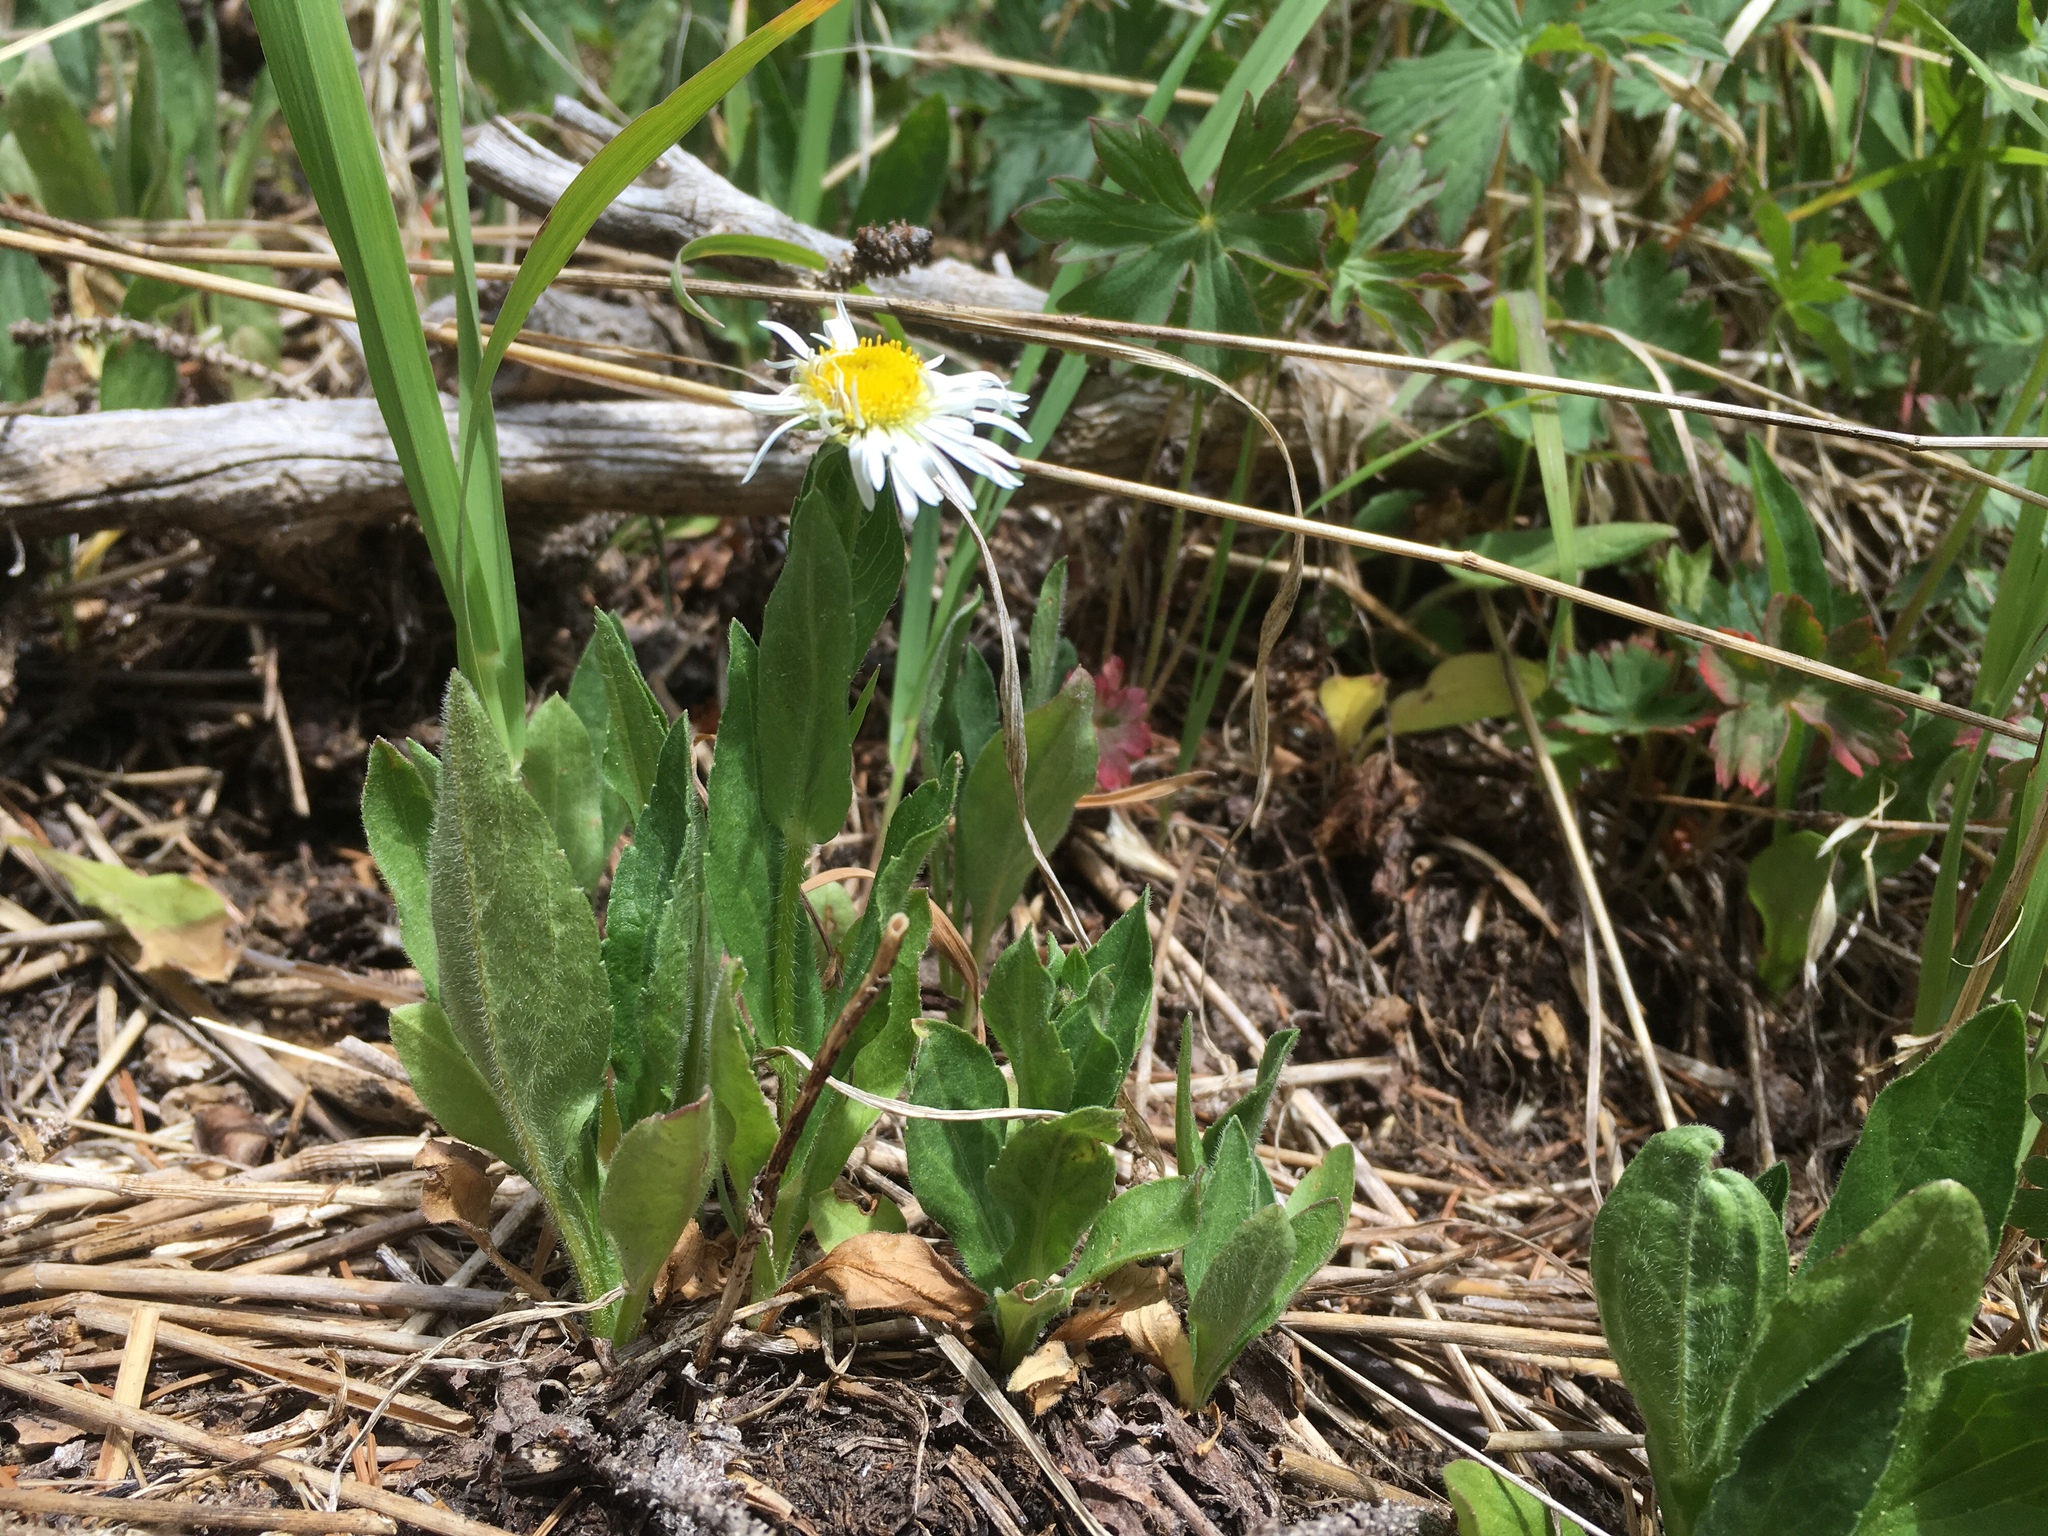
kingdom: Plantae
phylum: Tracheophyta
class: Magnoliopsida
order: Asterales
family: Asteraceae
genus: Erigeron
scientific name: Erigeron coulteri
